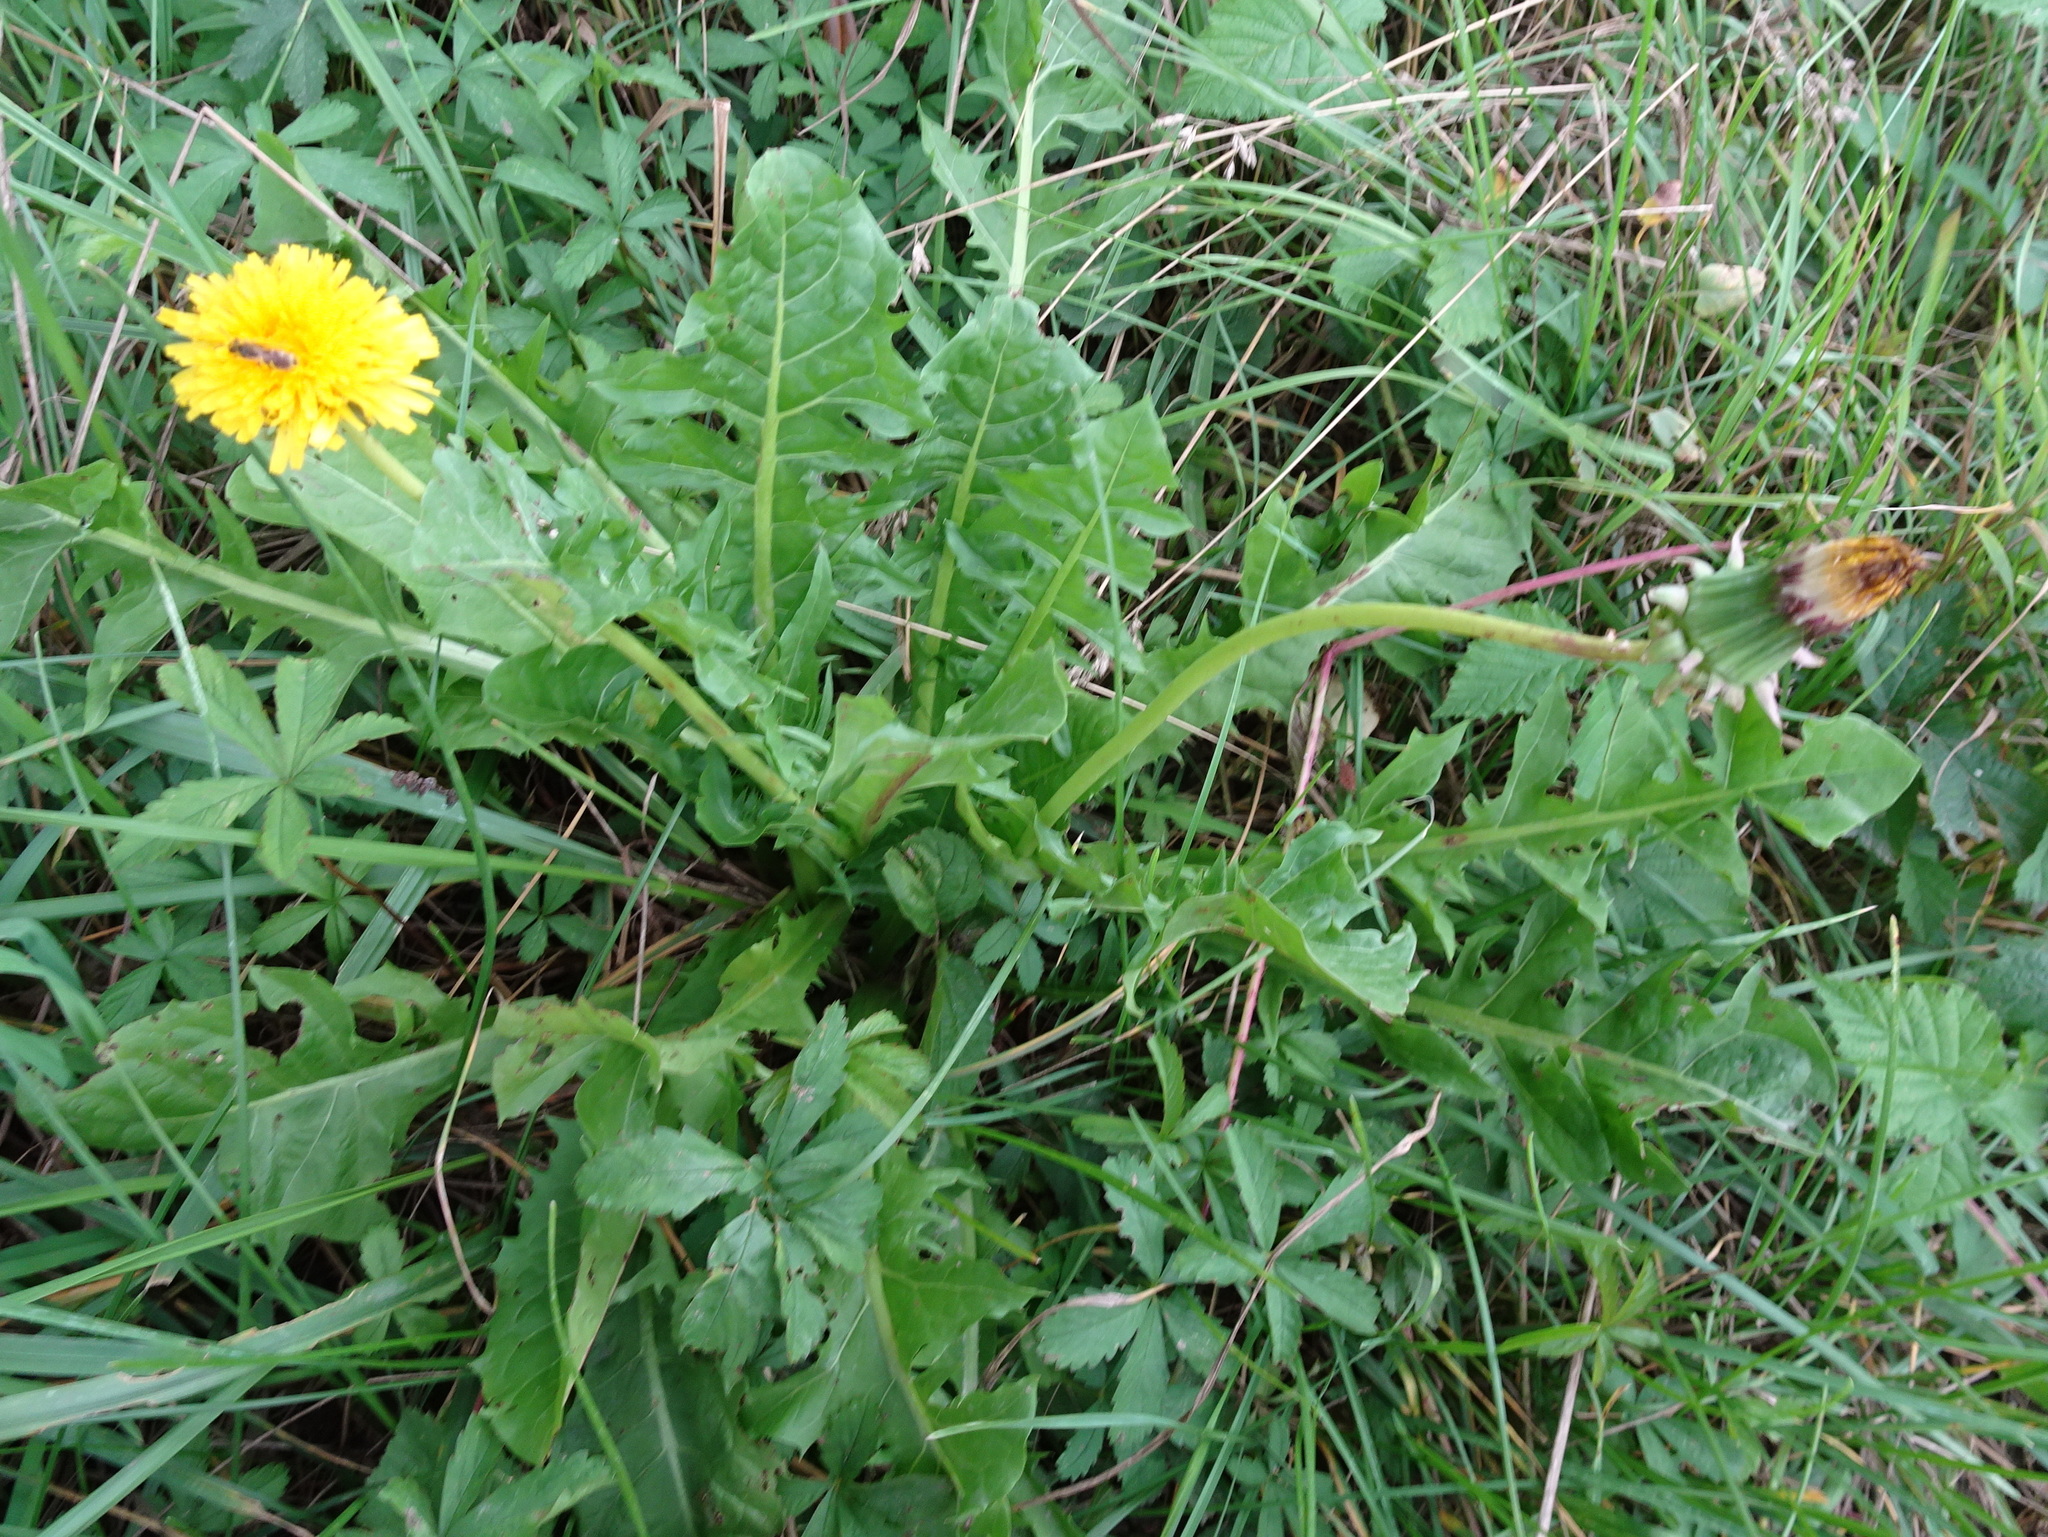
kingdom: Plantae
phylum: Tracheophyta
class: Magnoliopsida
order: Asterales
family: Asteraceae
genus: Taraxacum
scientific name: Taraxacum officinale
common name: Common dandelion
